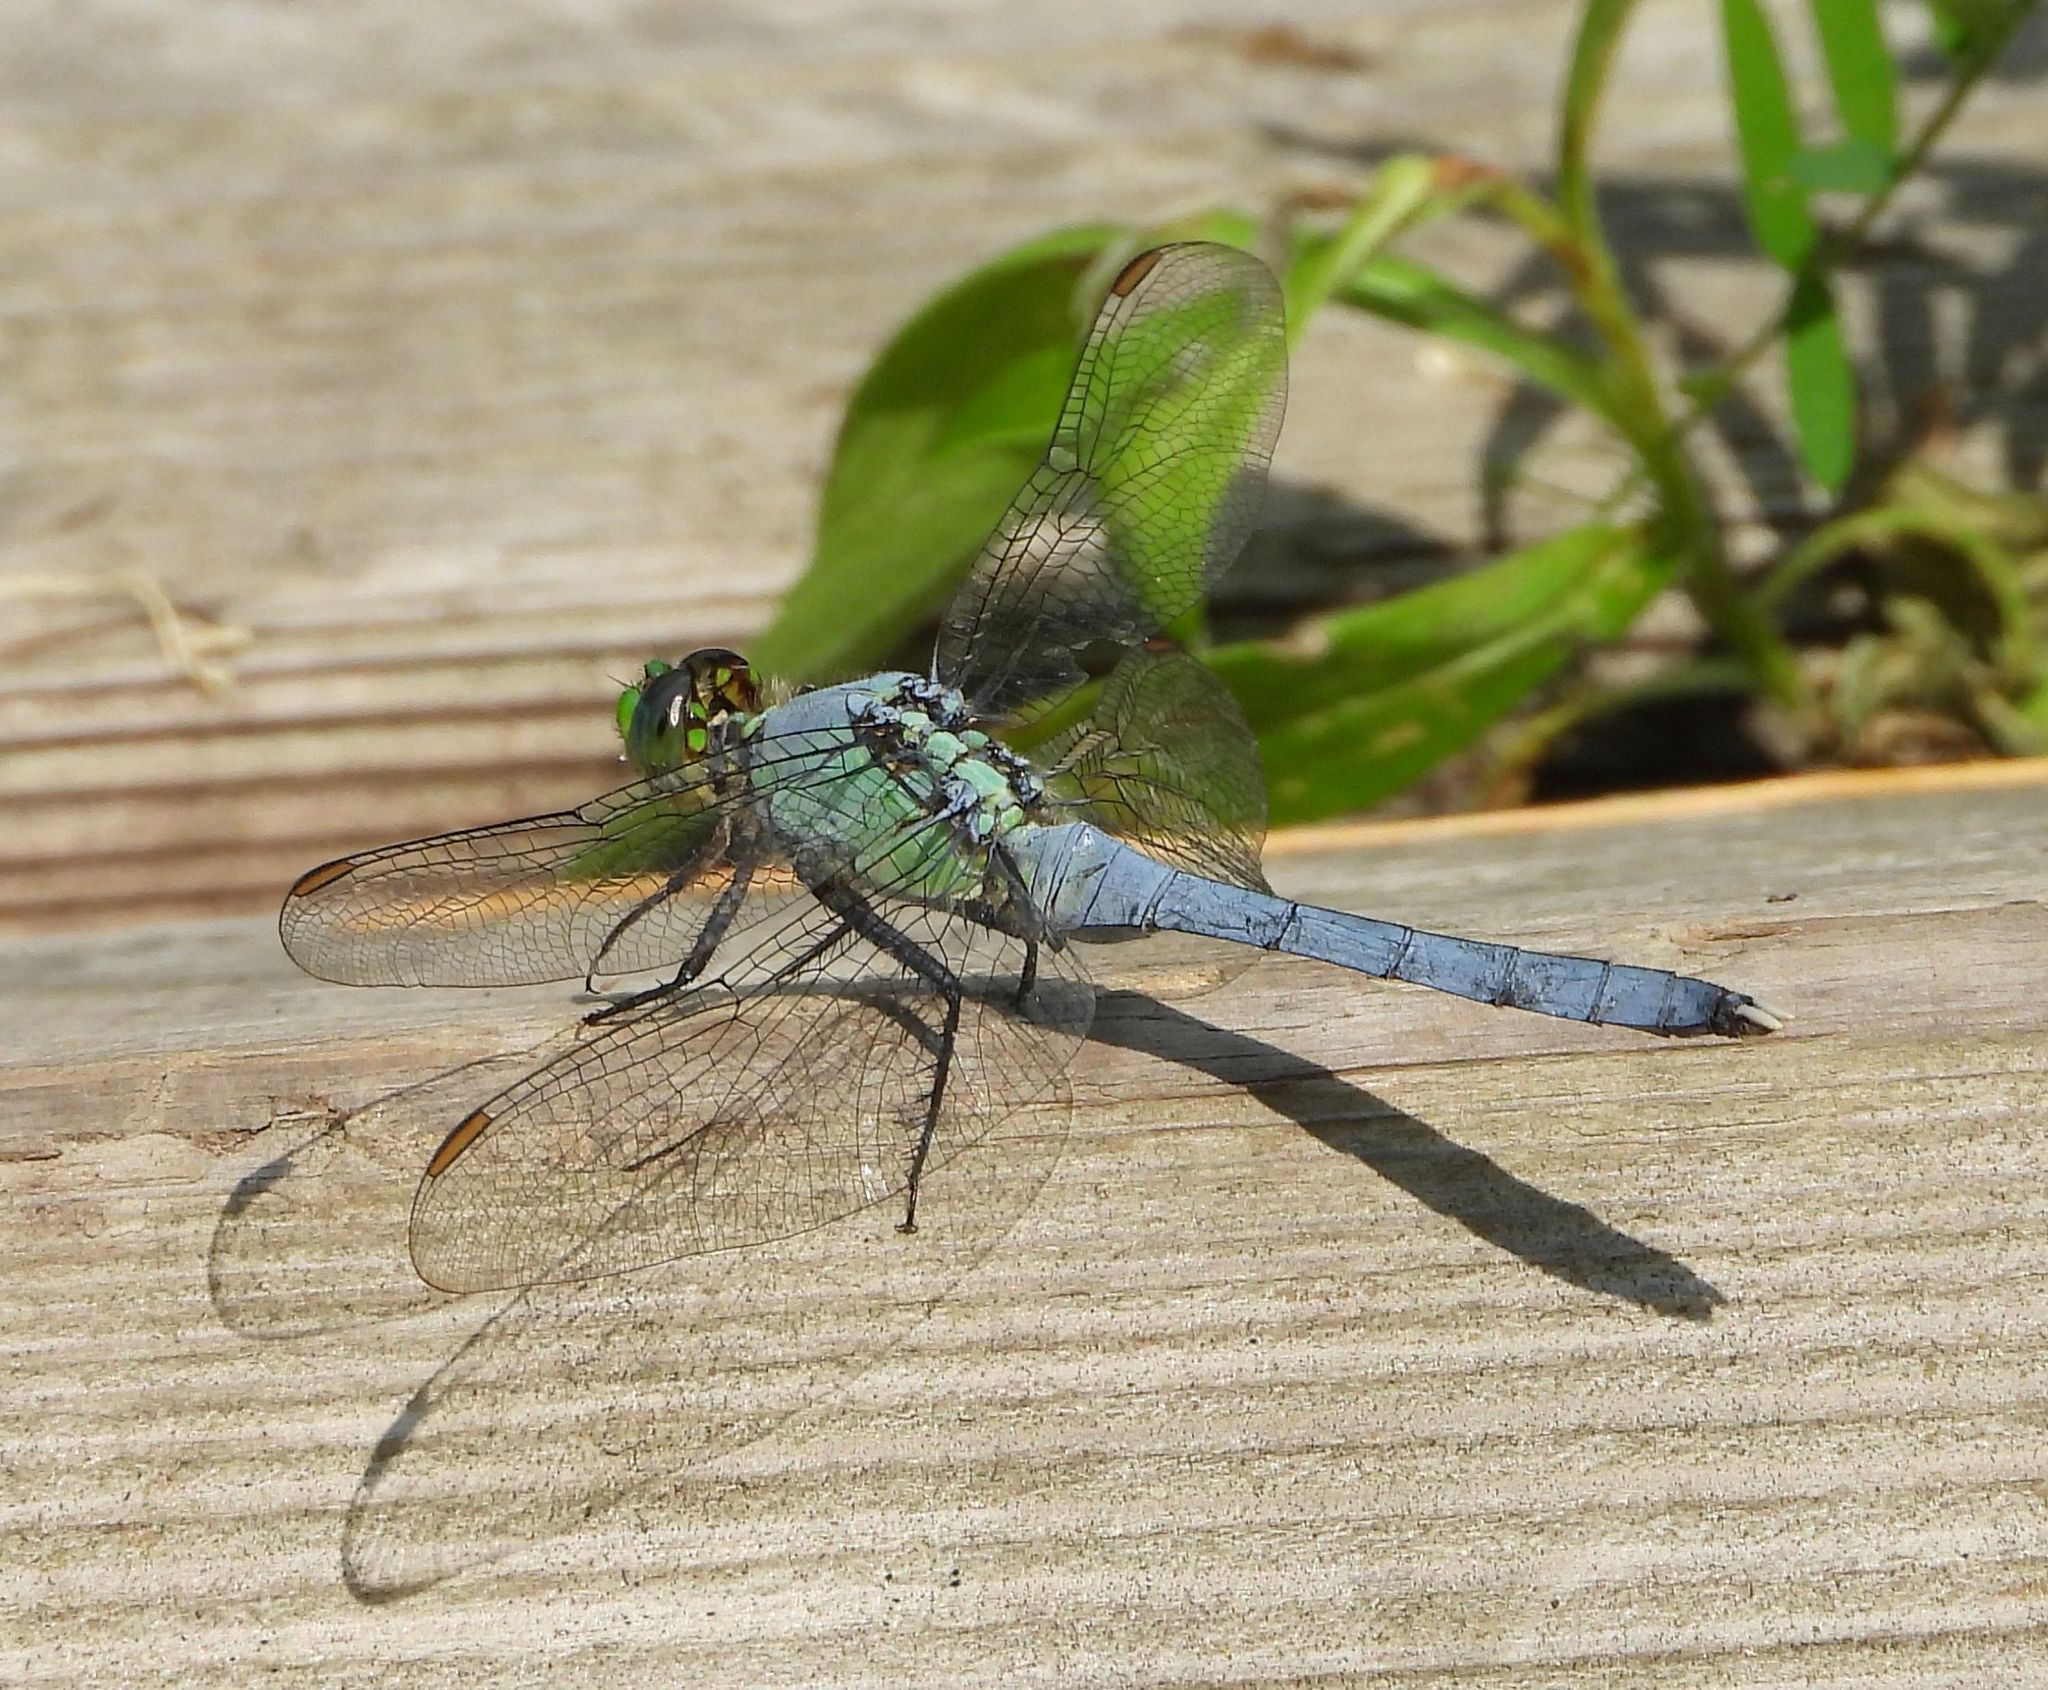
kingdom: Animalia
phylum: Arthropoda
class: Insecta
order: Odonata
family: Libellulidae
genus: Erythemis
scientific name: Erythemis simplicicollis
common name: Eastern pondhawk
